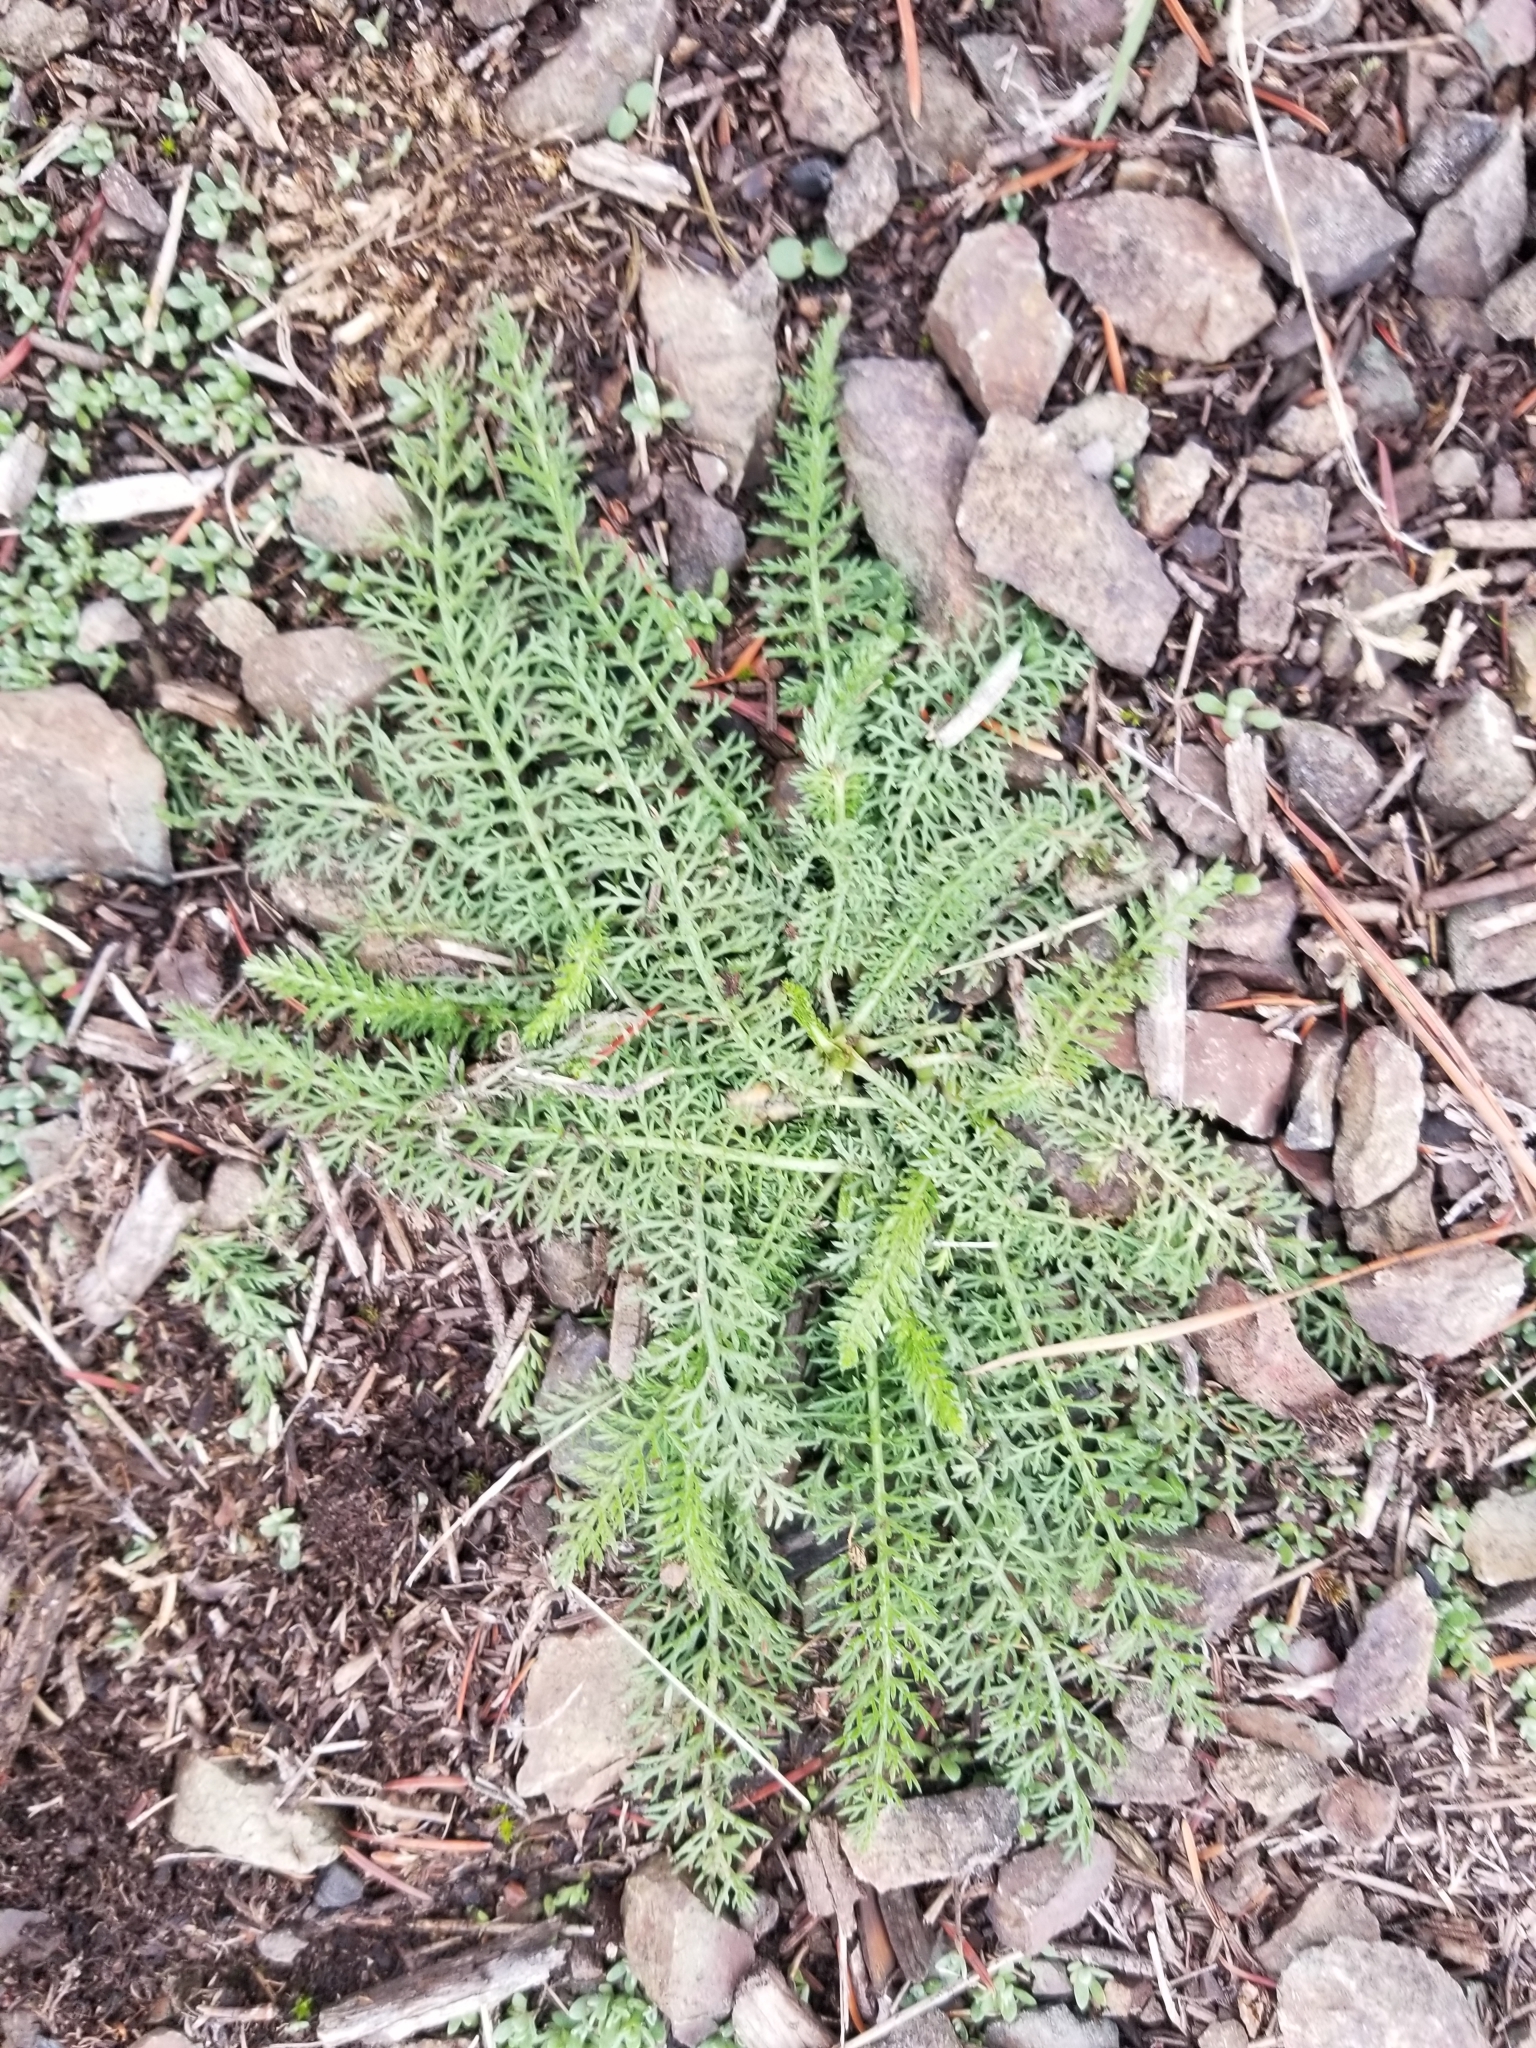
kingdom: Plantae
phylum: Tracheophyta
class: Magnoliopsida
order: Asterales
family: Asteraceae
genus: Achillea
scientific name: Achillea millefolium
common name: Yarrow
